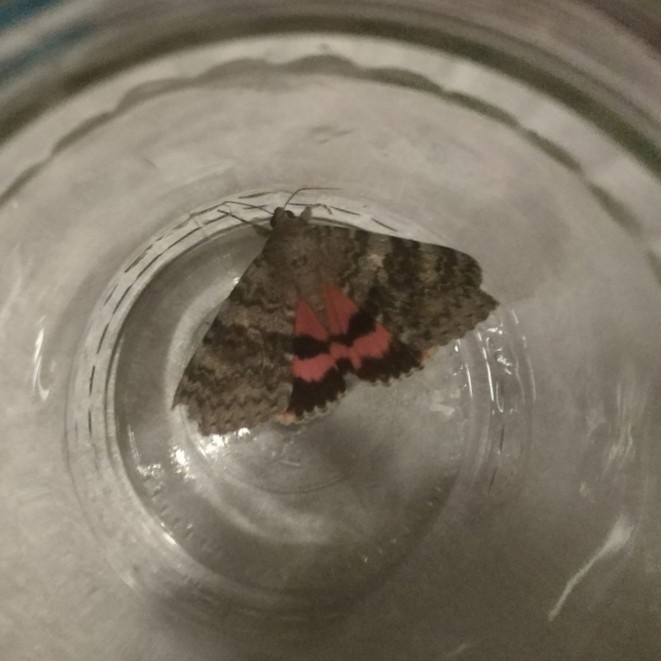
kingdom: Animalia
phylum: Arthropoda
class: Insecta
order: Lepidoptera
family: Erebidae
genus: Catocala
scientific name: Catocala elocata
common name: French red underwing
